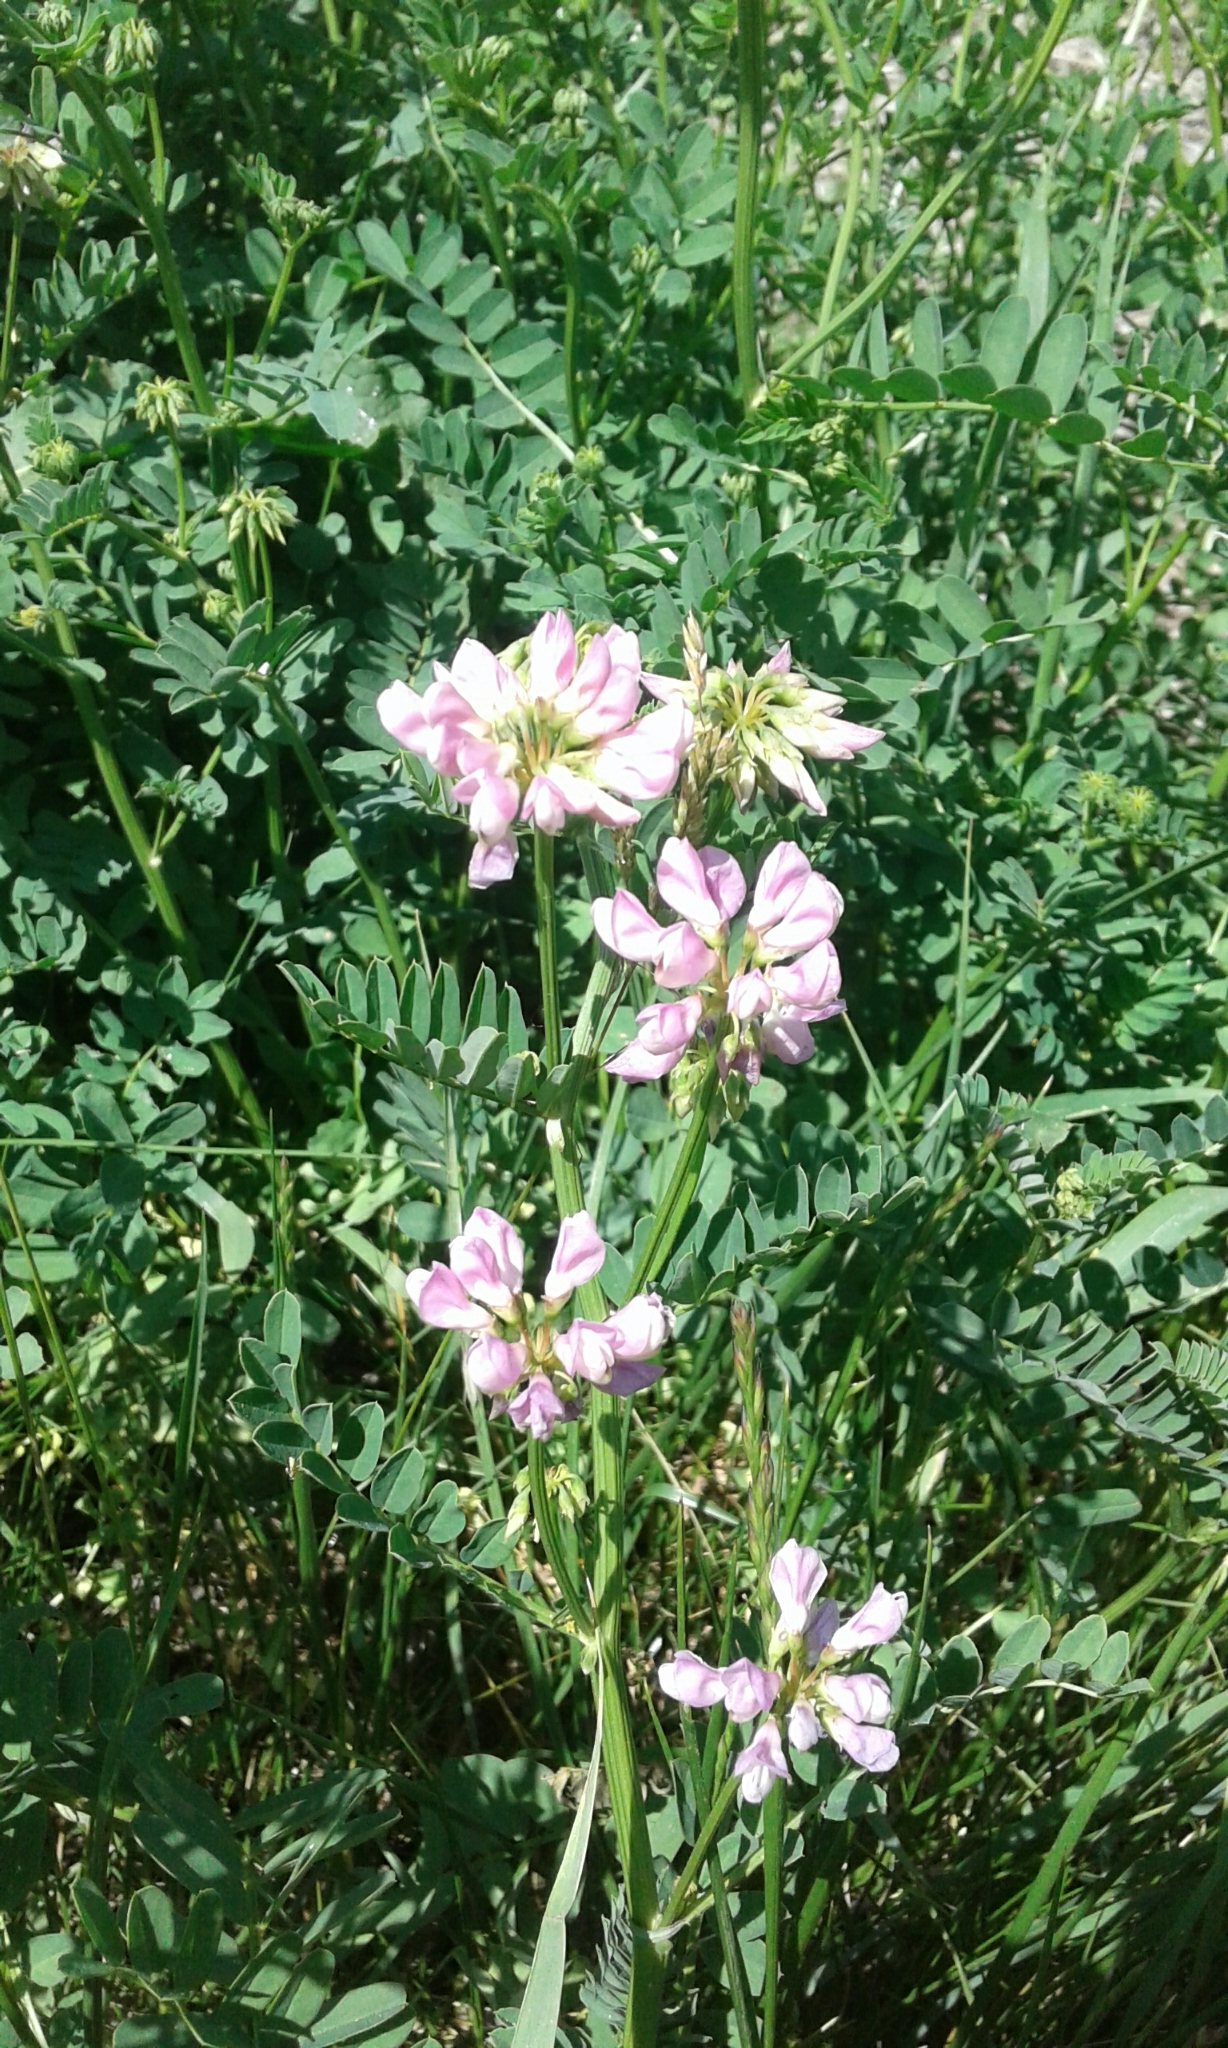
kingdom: Plantae
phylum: Tracheophyta
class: Magnoliopsida
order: Fabales
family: Fabaceae
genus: Coronilla
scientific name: Coronilla varia
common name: Crownvetch
